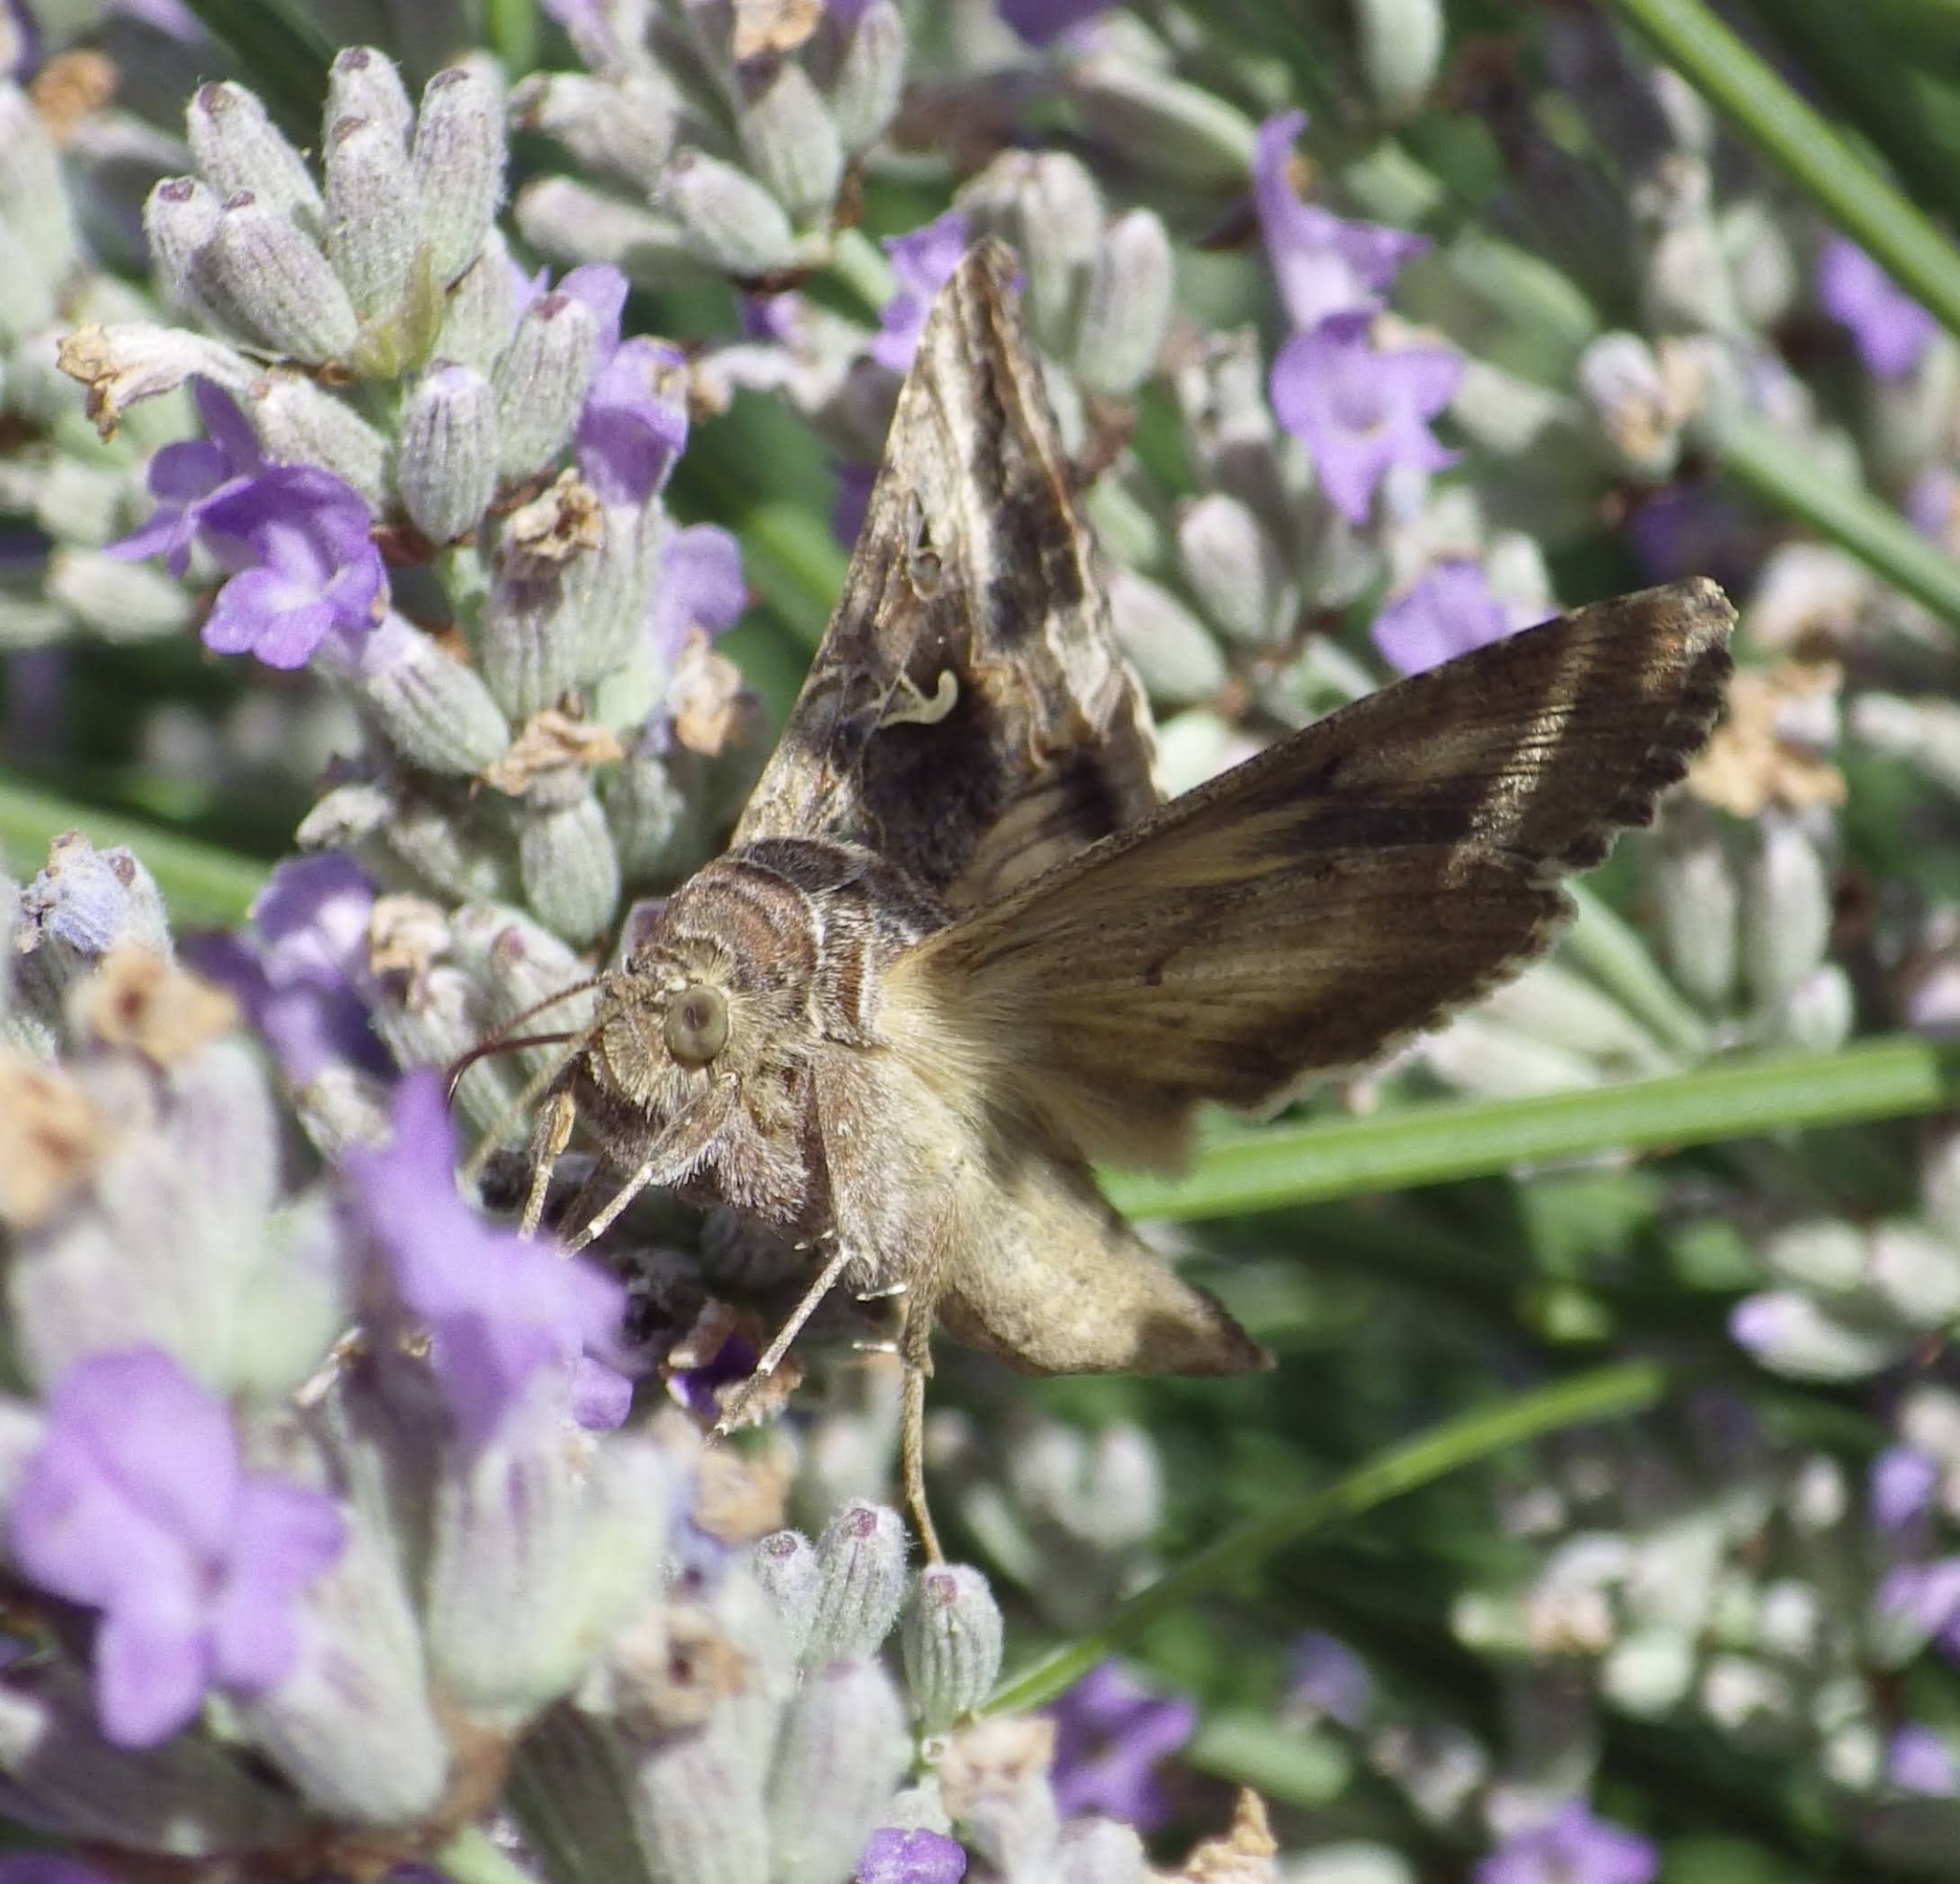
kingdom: Animalia
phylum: Arthropoda
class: Insecta
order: Lepidoptera
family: Noctuidae
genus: Autographa
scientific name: Autographa gamma
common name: Silver y
